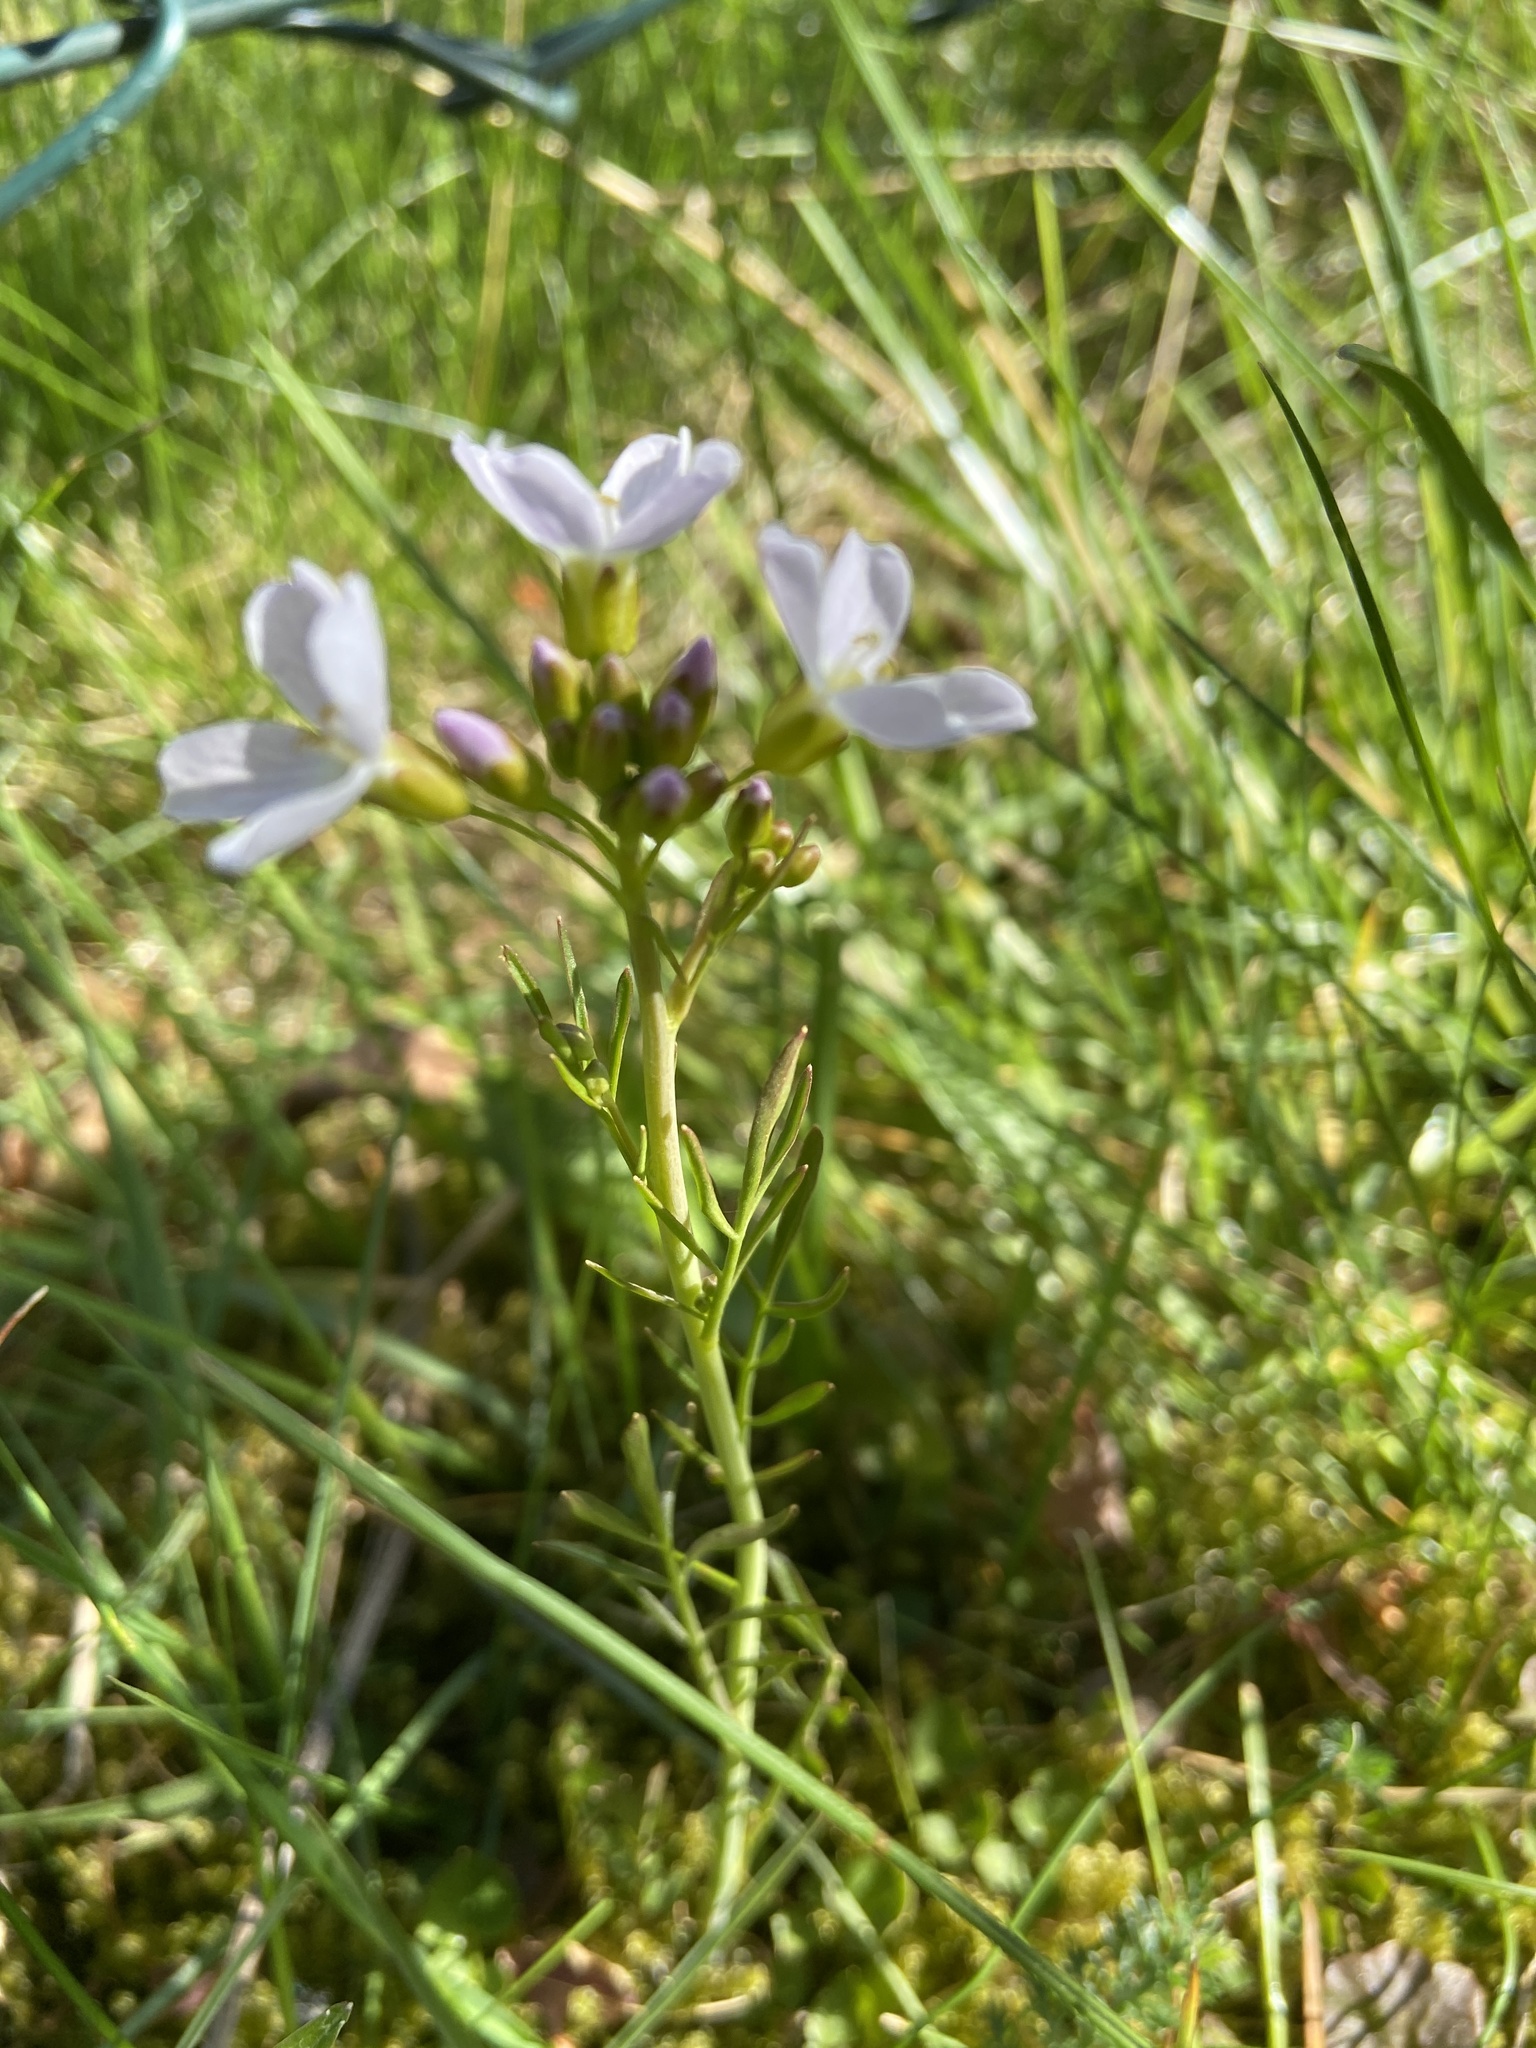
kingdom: Plantae
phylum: Tracheophyta
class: Magnoliopsida
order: Brassicales
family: Brassicaceae
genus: Cardamine
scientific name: Cardamine pratensis
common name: Cuckoo flower
